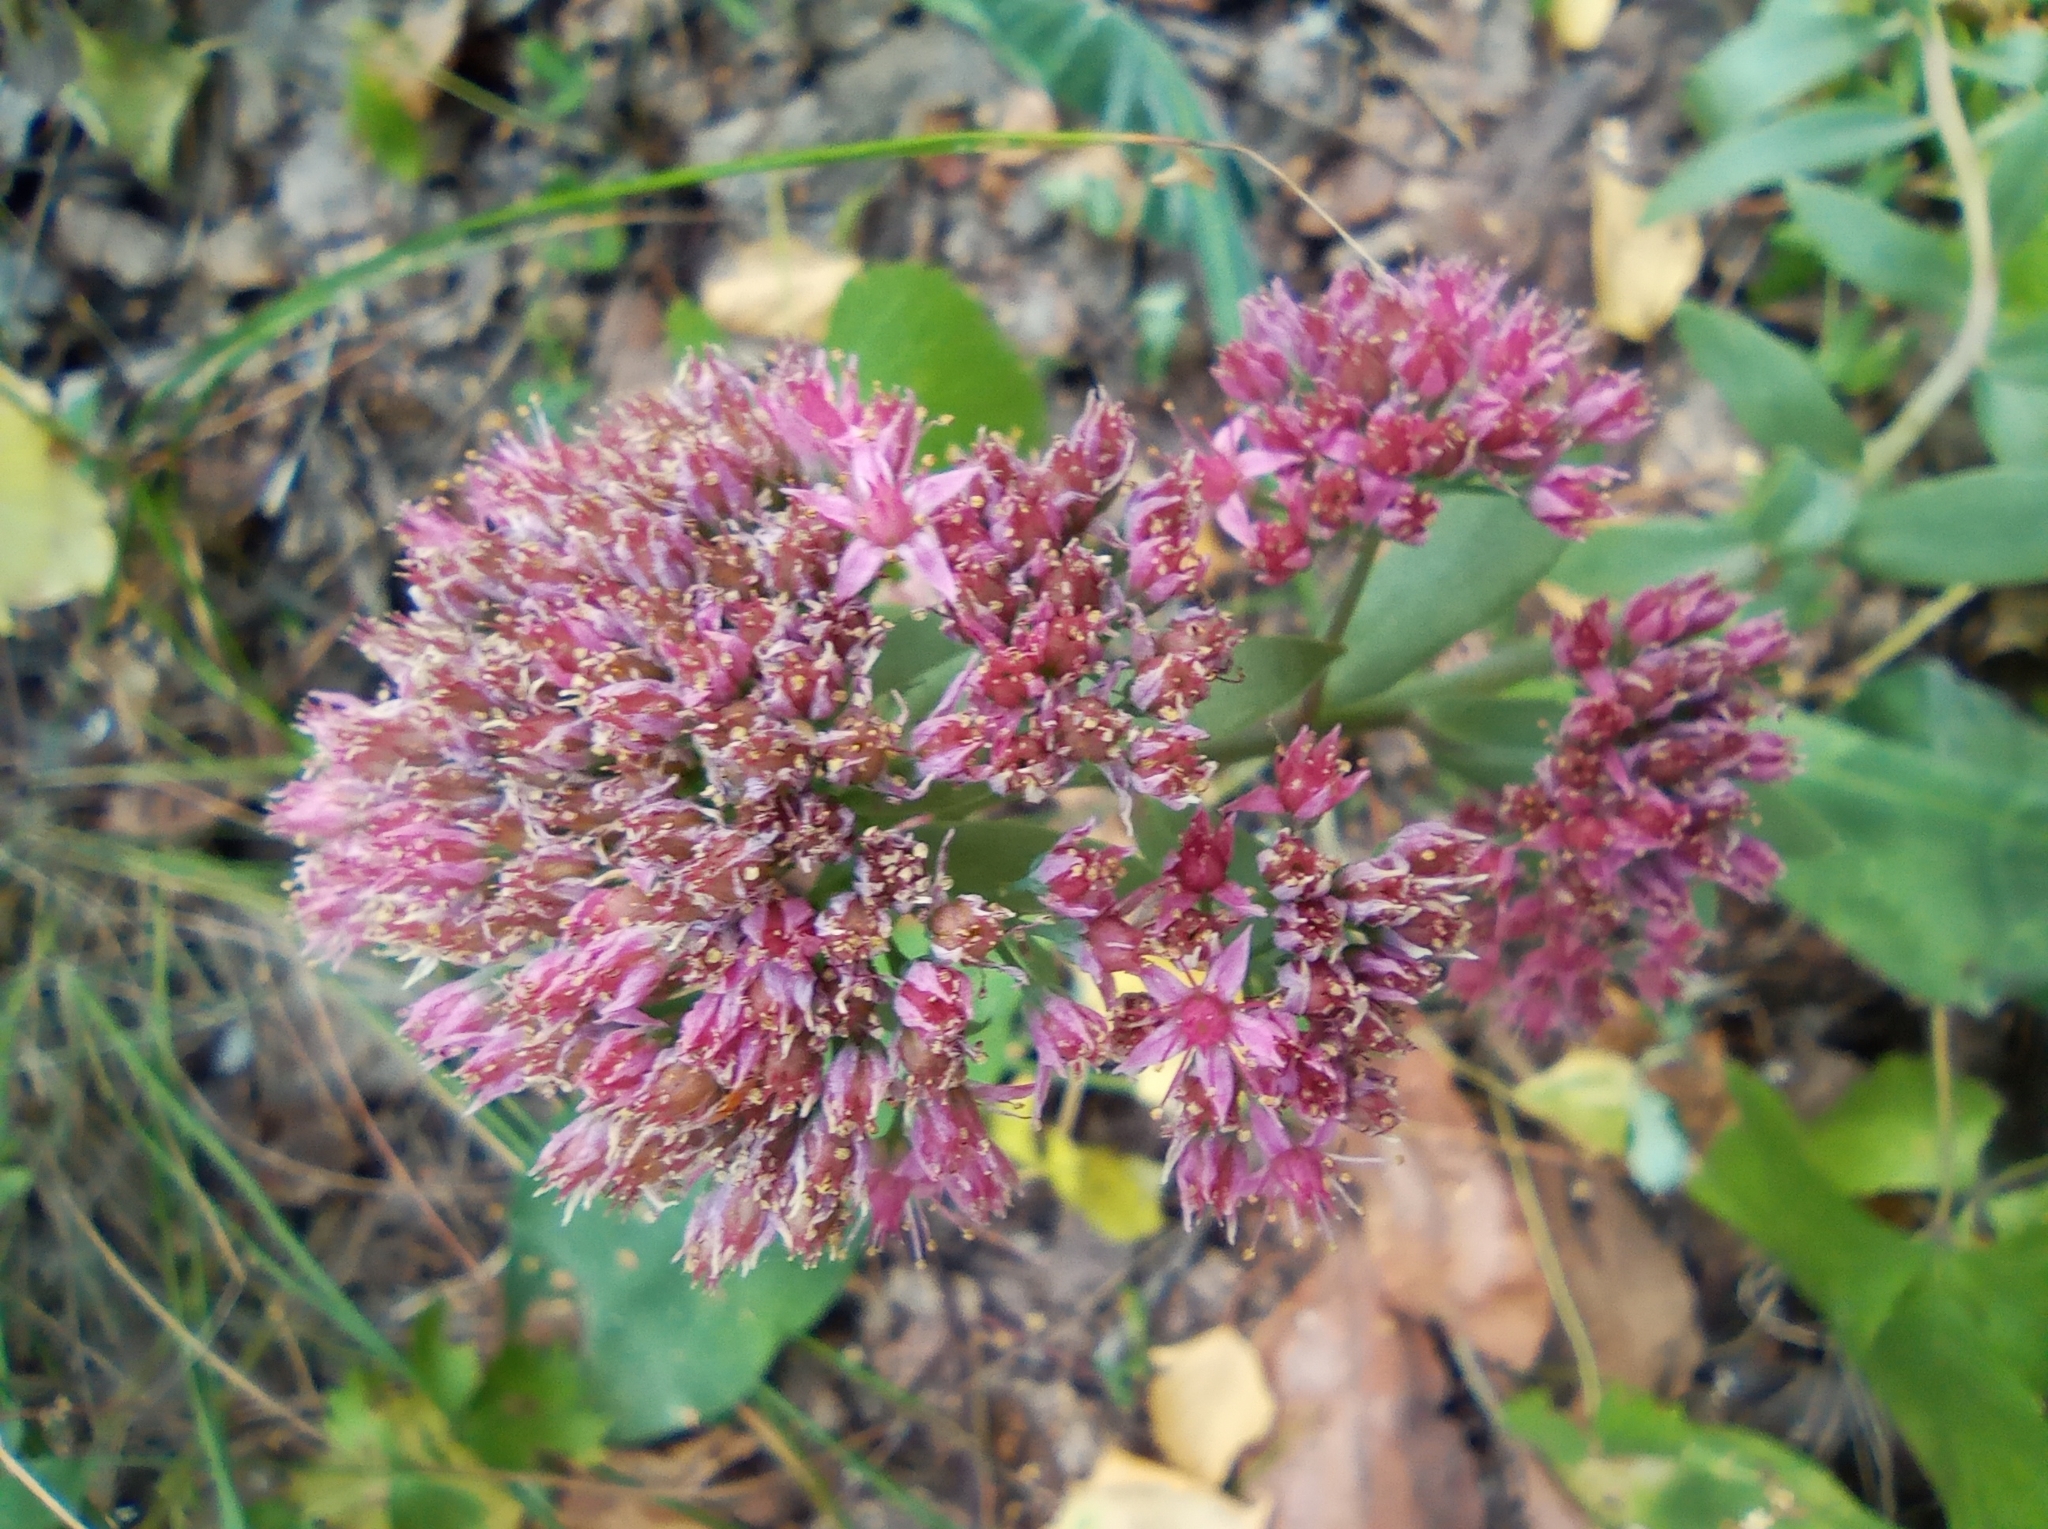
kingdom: Plantae
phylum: Tracheophyta
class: Magnoliopsida
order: Saxifragales
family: Crassulaceae
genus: Hylotelephium
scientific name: Hylotelephium telephium
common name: Live-forever
